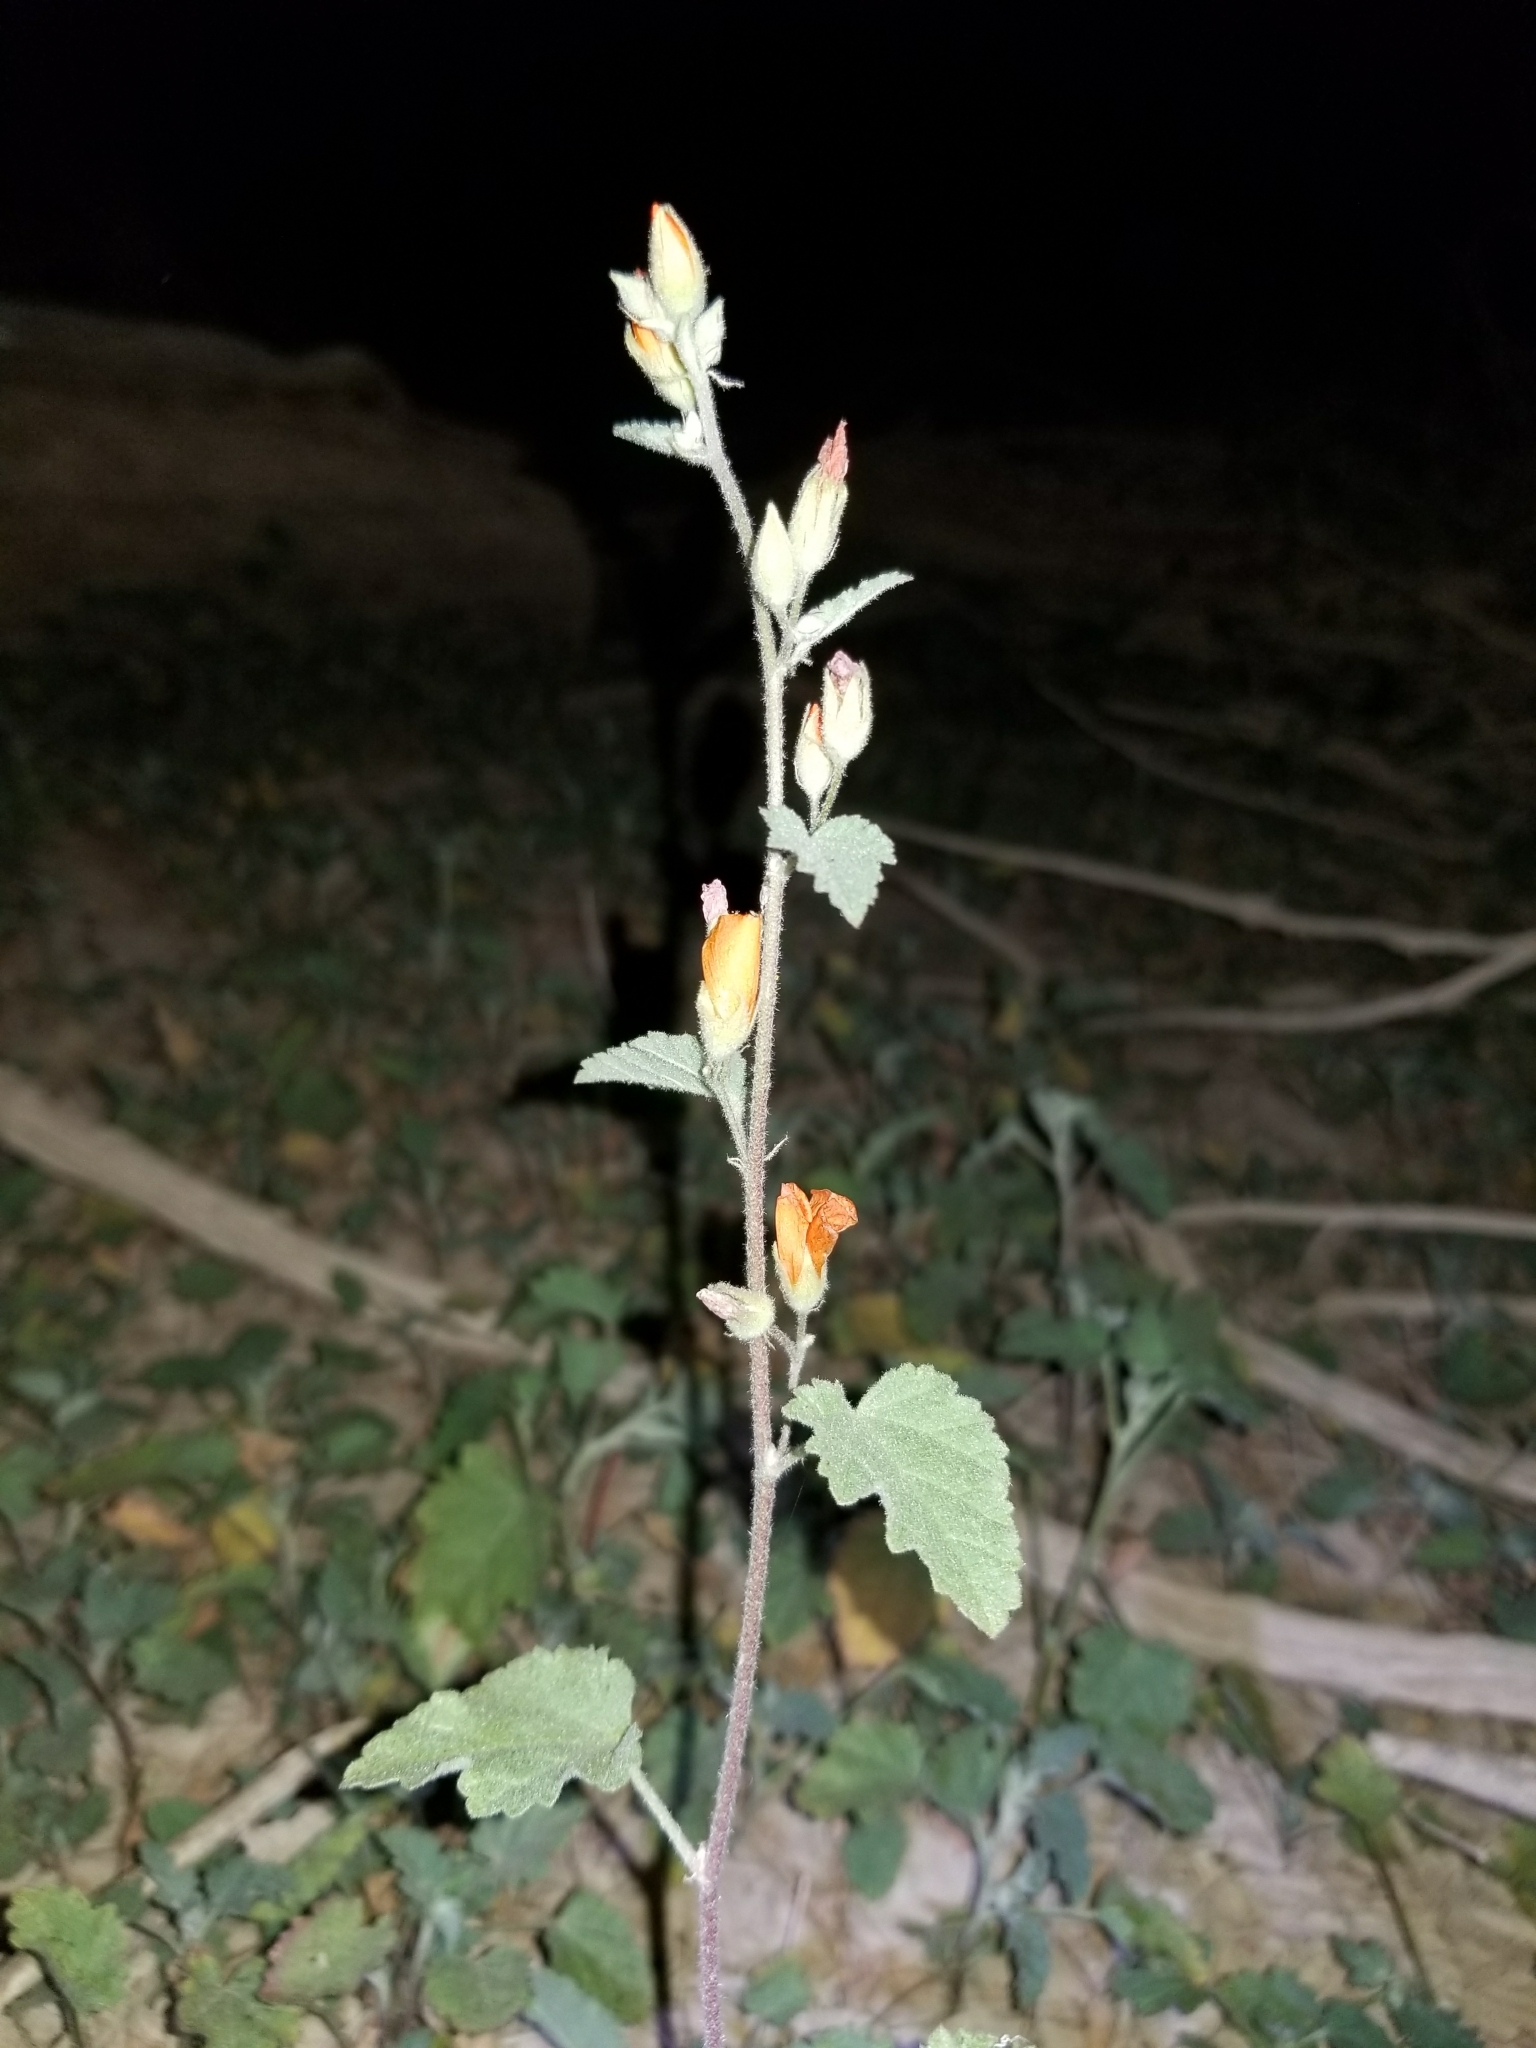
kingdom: Plantae
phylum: Tracheophyta
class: Magnoliopsida
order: Malvales
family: Malvaceae
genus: Sphaeralcea
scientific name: Sphaeralcea ambigua
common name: Apricot globe-mallow
